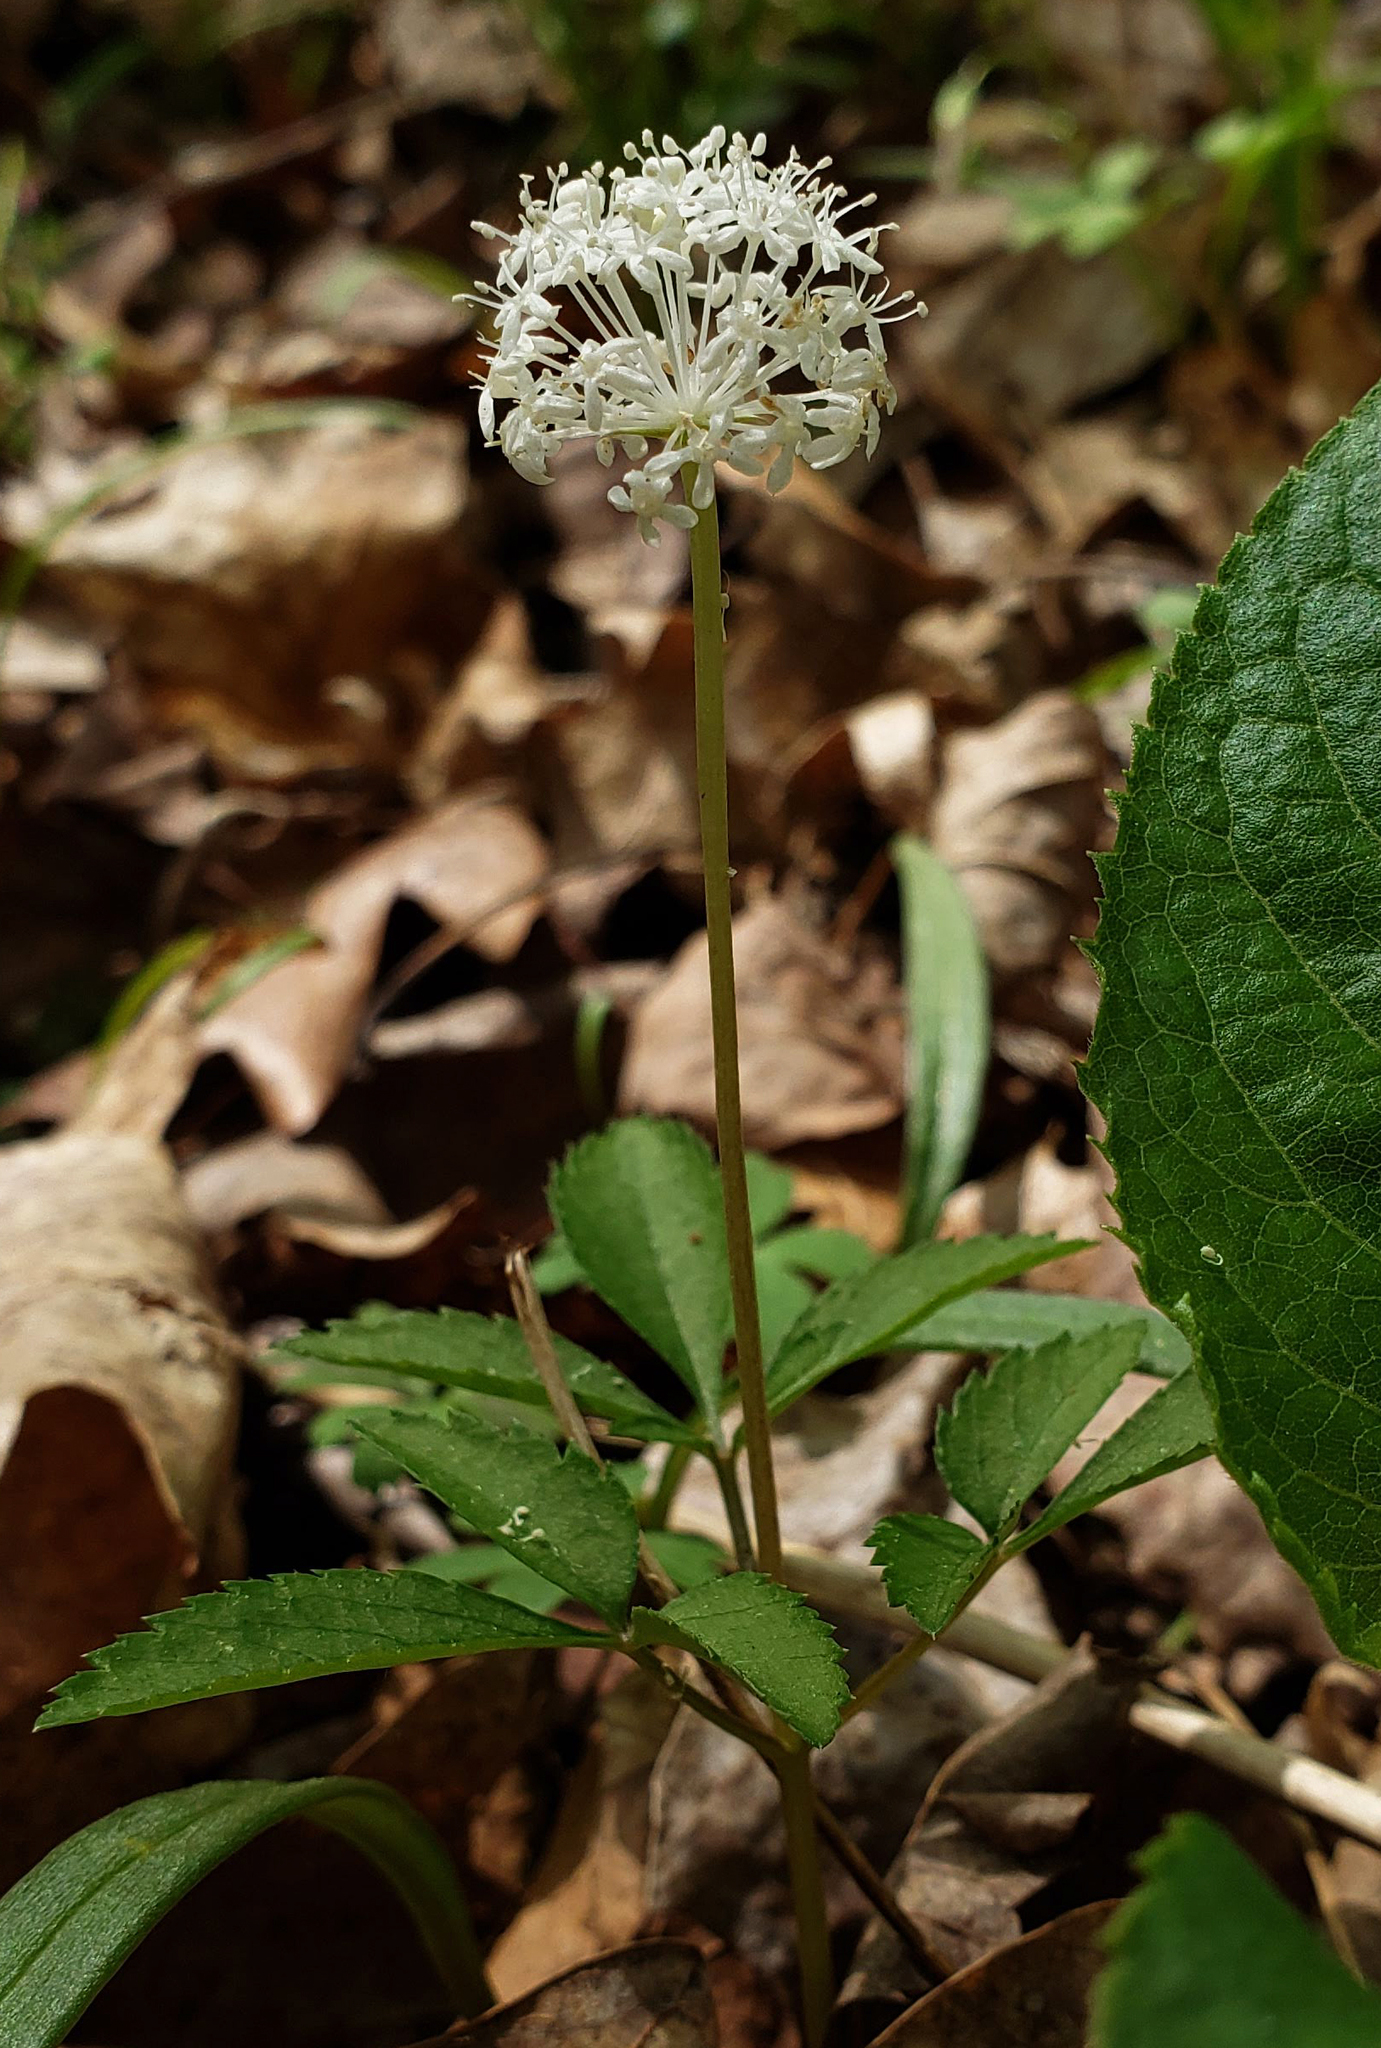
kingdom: Plantae
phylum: Tracheophyta
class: Magnoliopsida
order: Apiales
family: Araliaceae
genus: Panax
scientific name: Panax trifolius
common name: Dwarf ginseng
